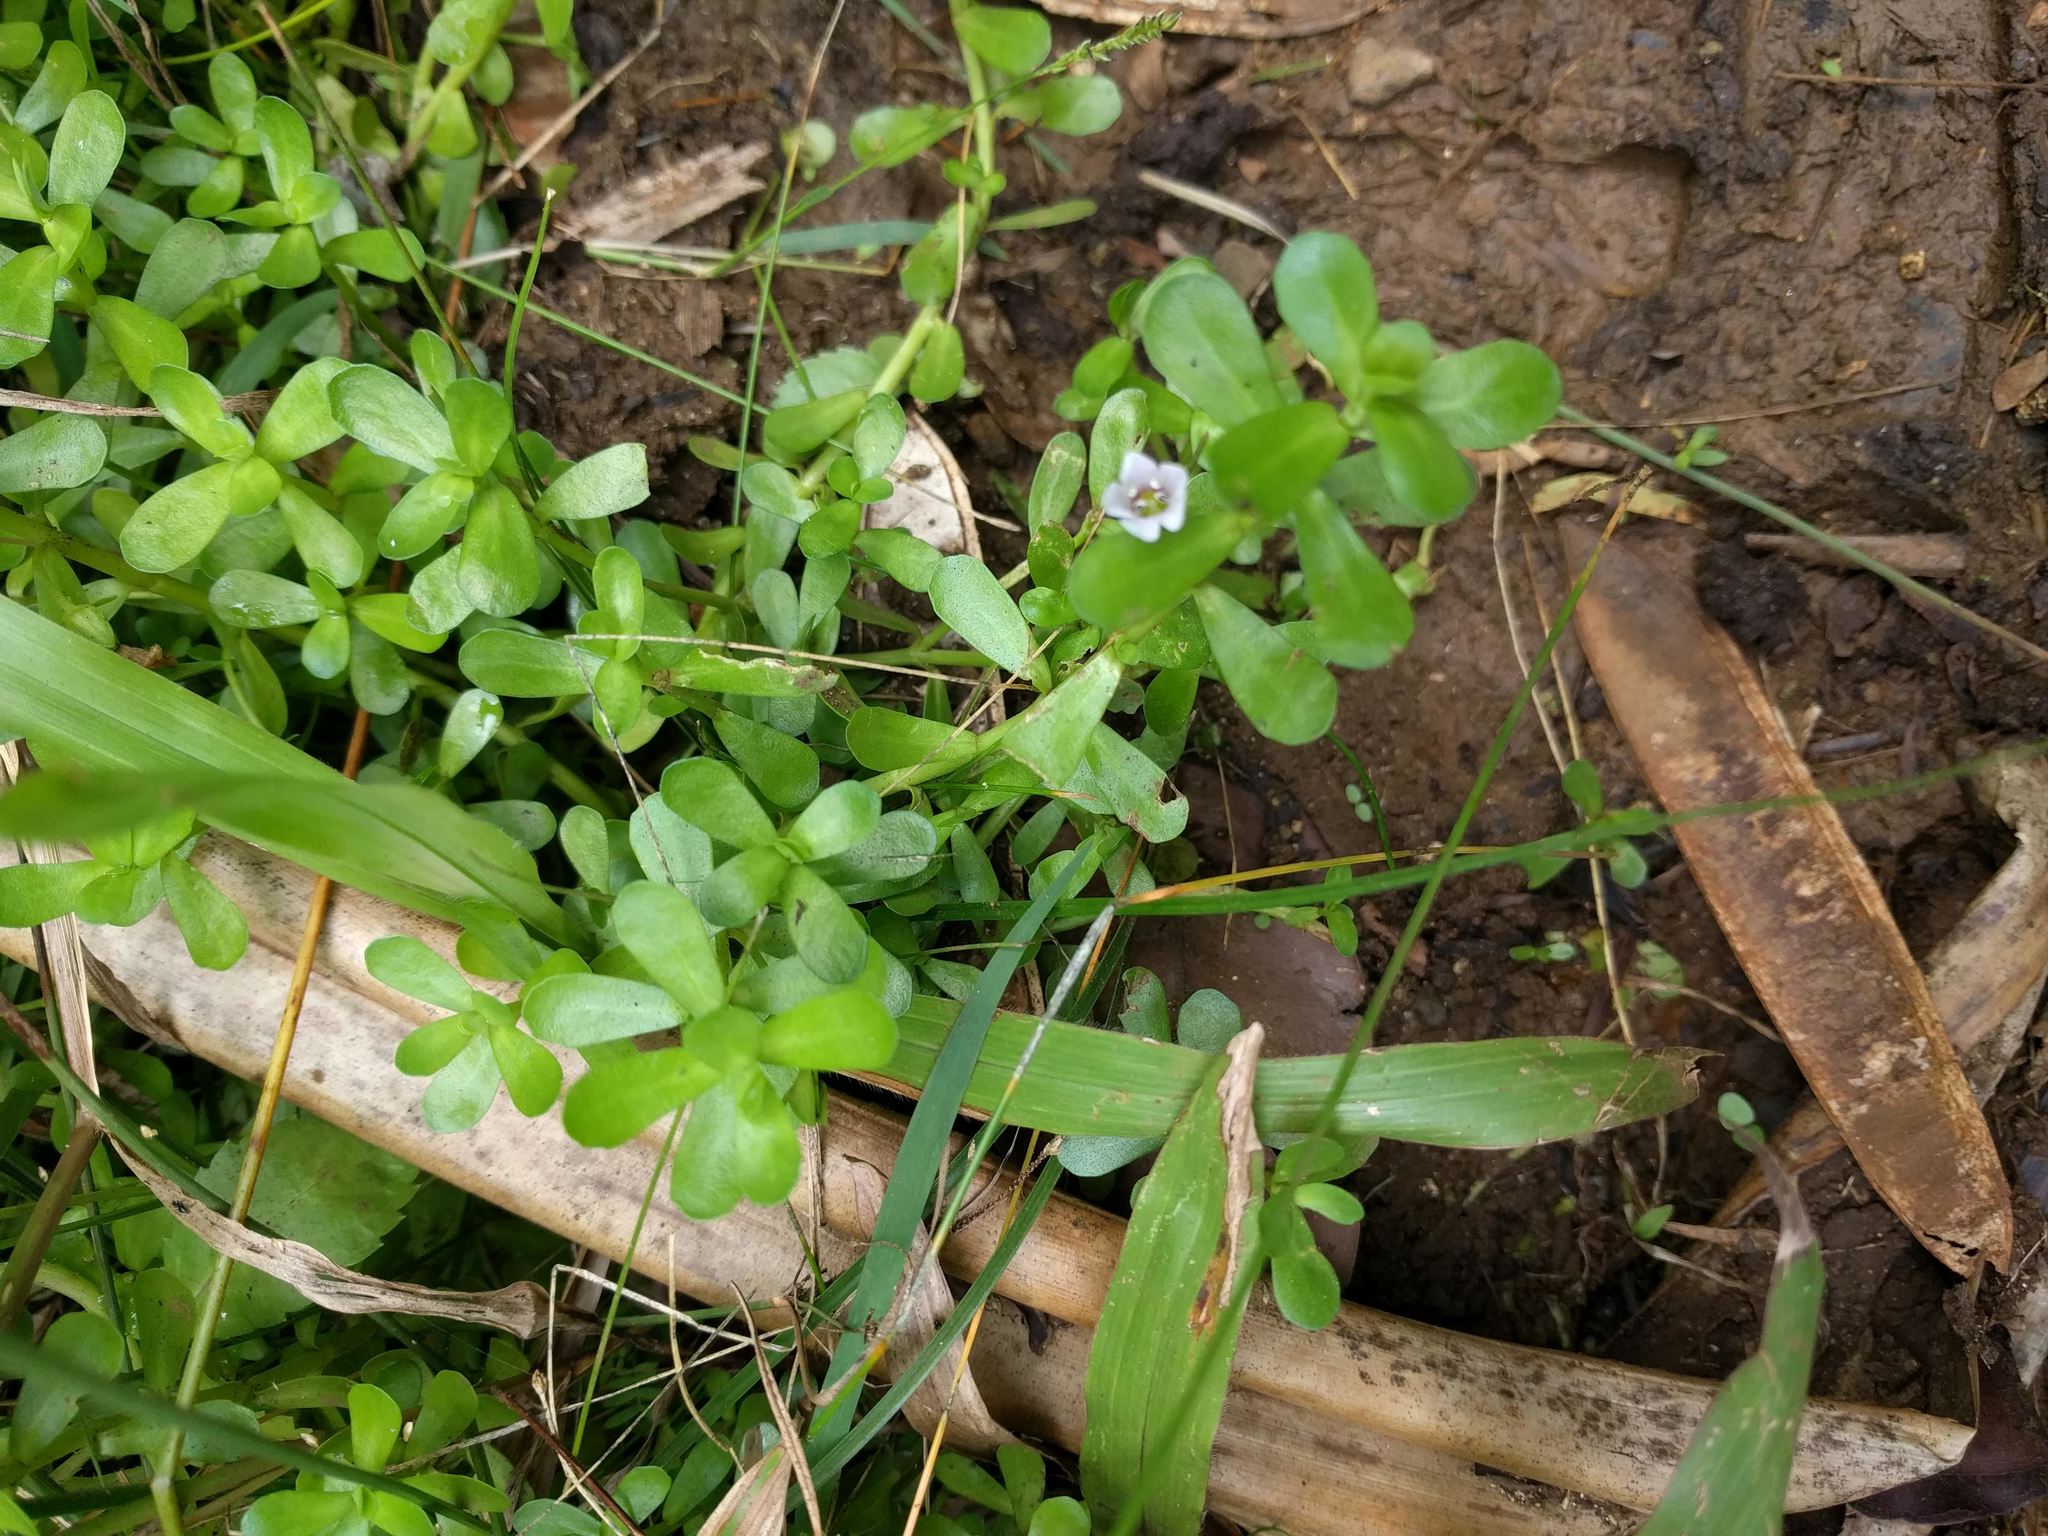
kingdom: Plantae
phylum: Tracheophyta
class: Magnoliopsida
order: Lamiales
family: Plantaginaceae
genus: Bacopa
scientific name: Bacopa monnieri
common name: Indian-pennywort
